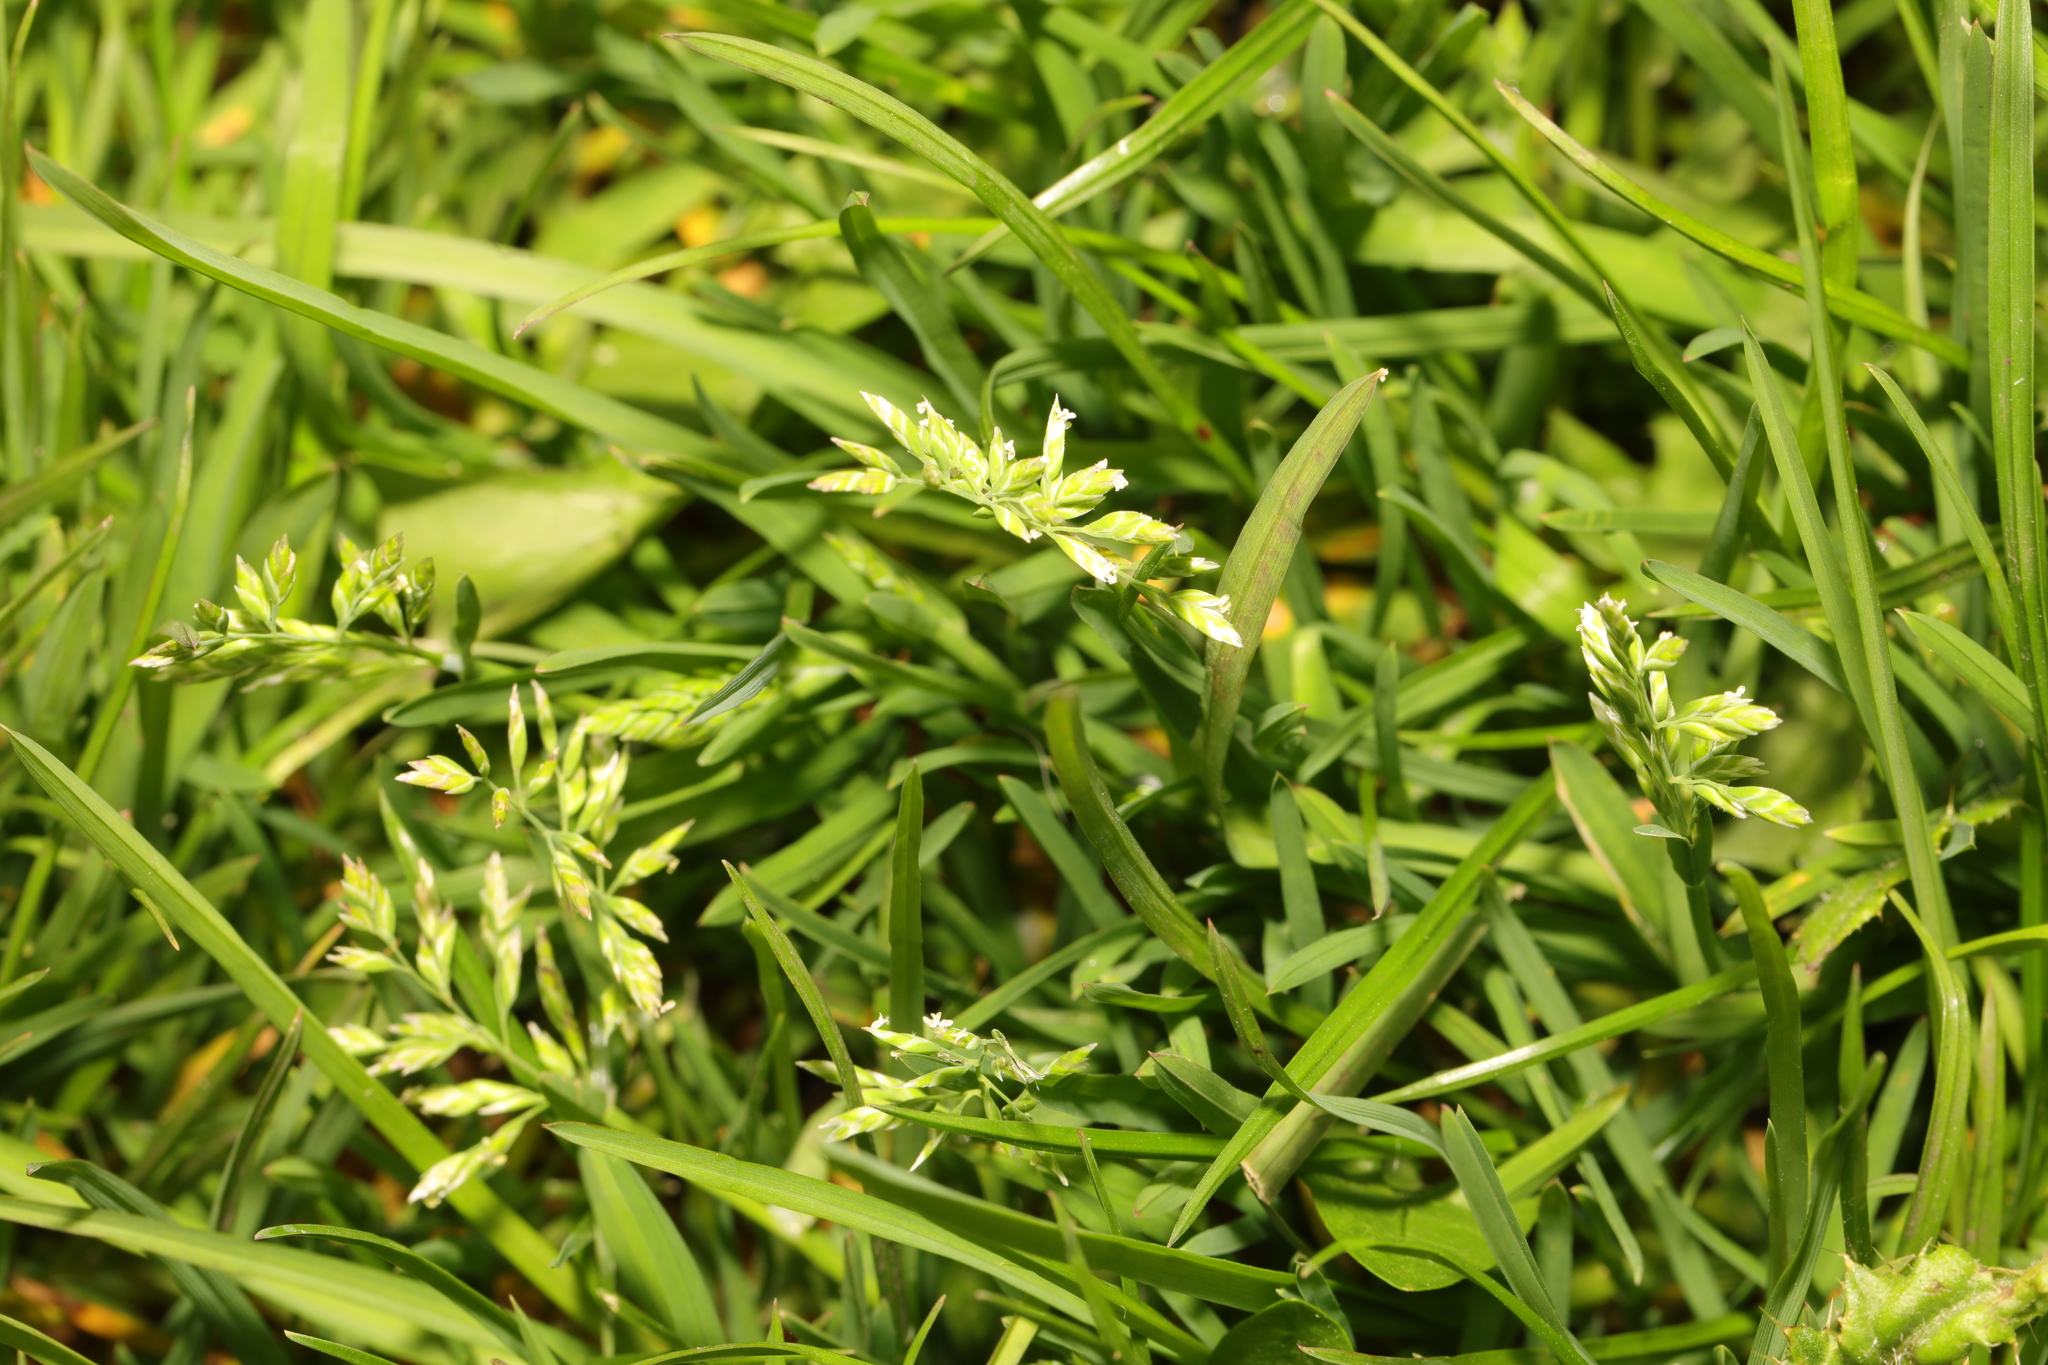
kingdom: Plantae
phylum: Tracheophyta
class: Liliopsida
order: Poales
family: Poaceae
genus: Poa
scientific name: Poa annua
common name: Annual bluegrass
